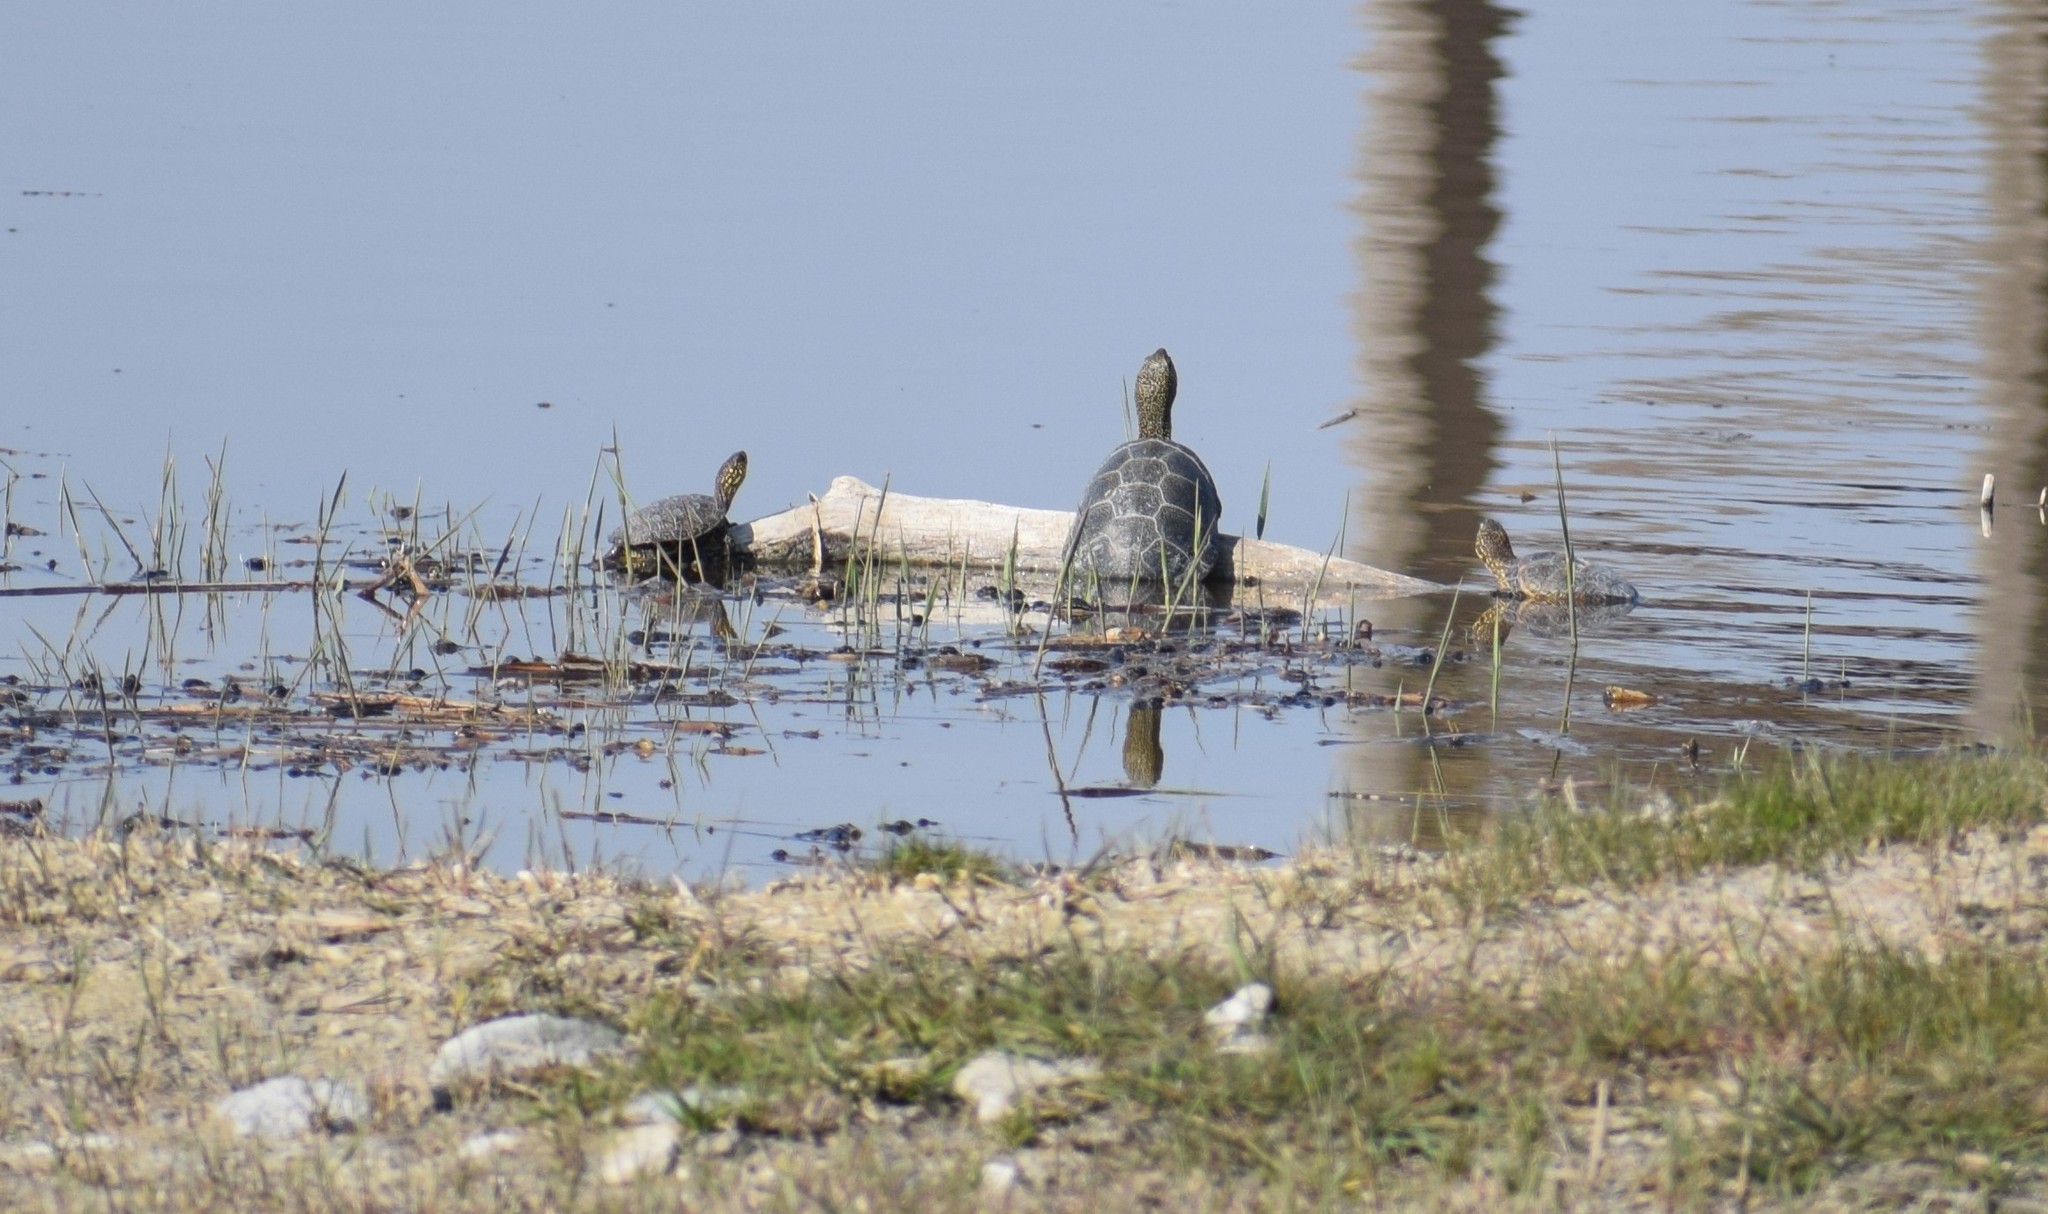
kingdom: Animalia
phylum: Chordata
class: Testudines
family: Emydidae
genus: Emys
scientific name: Emys orbicularis
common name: European pond turtle
